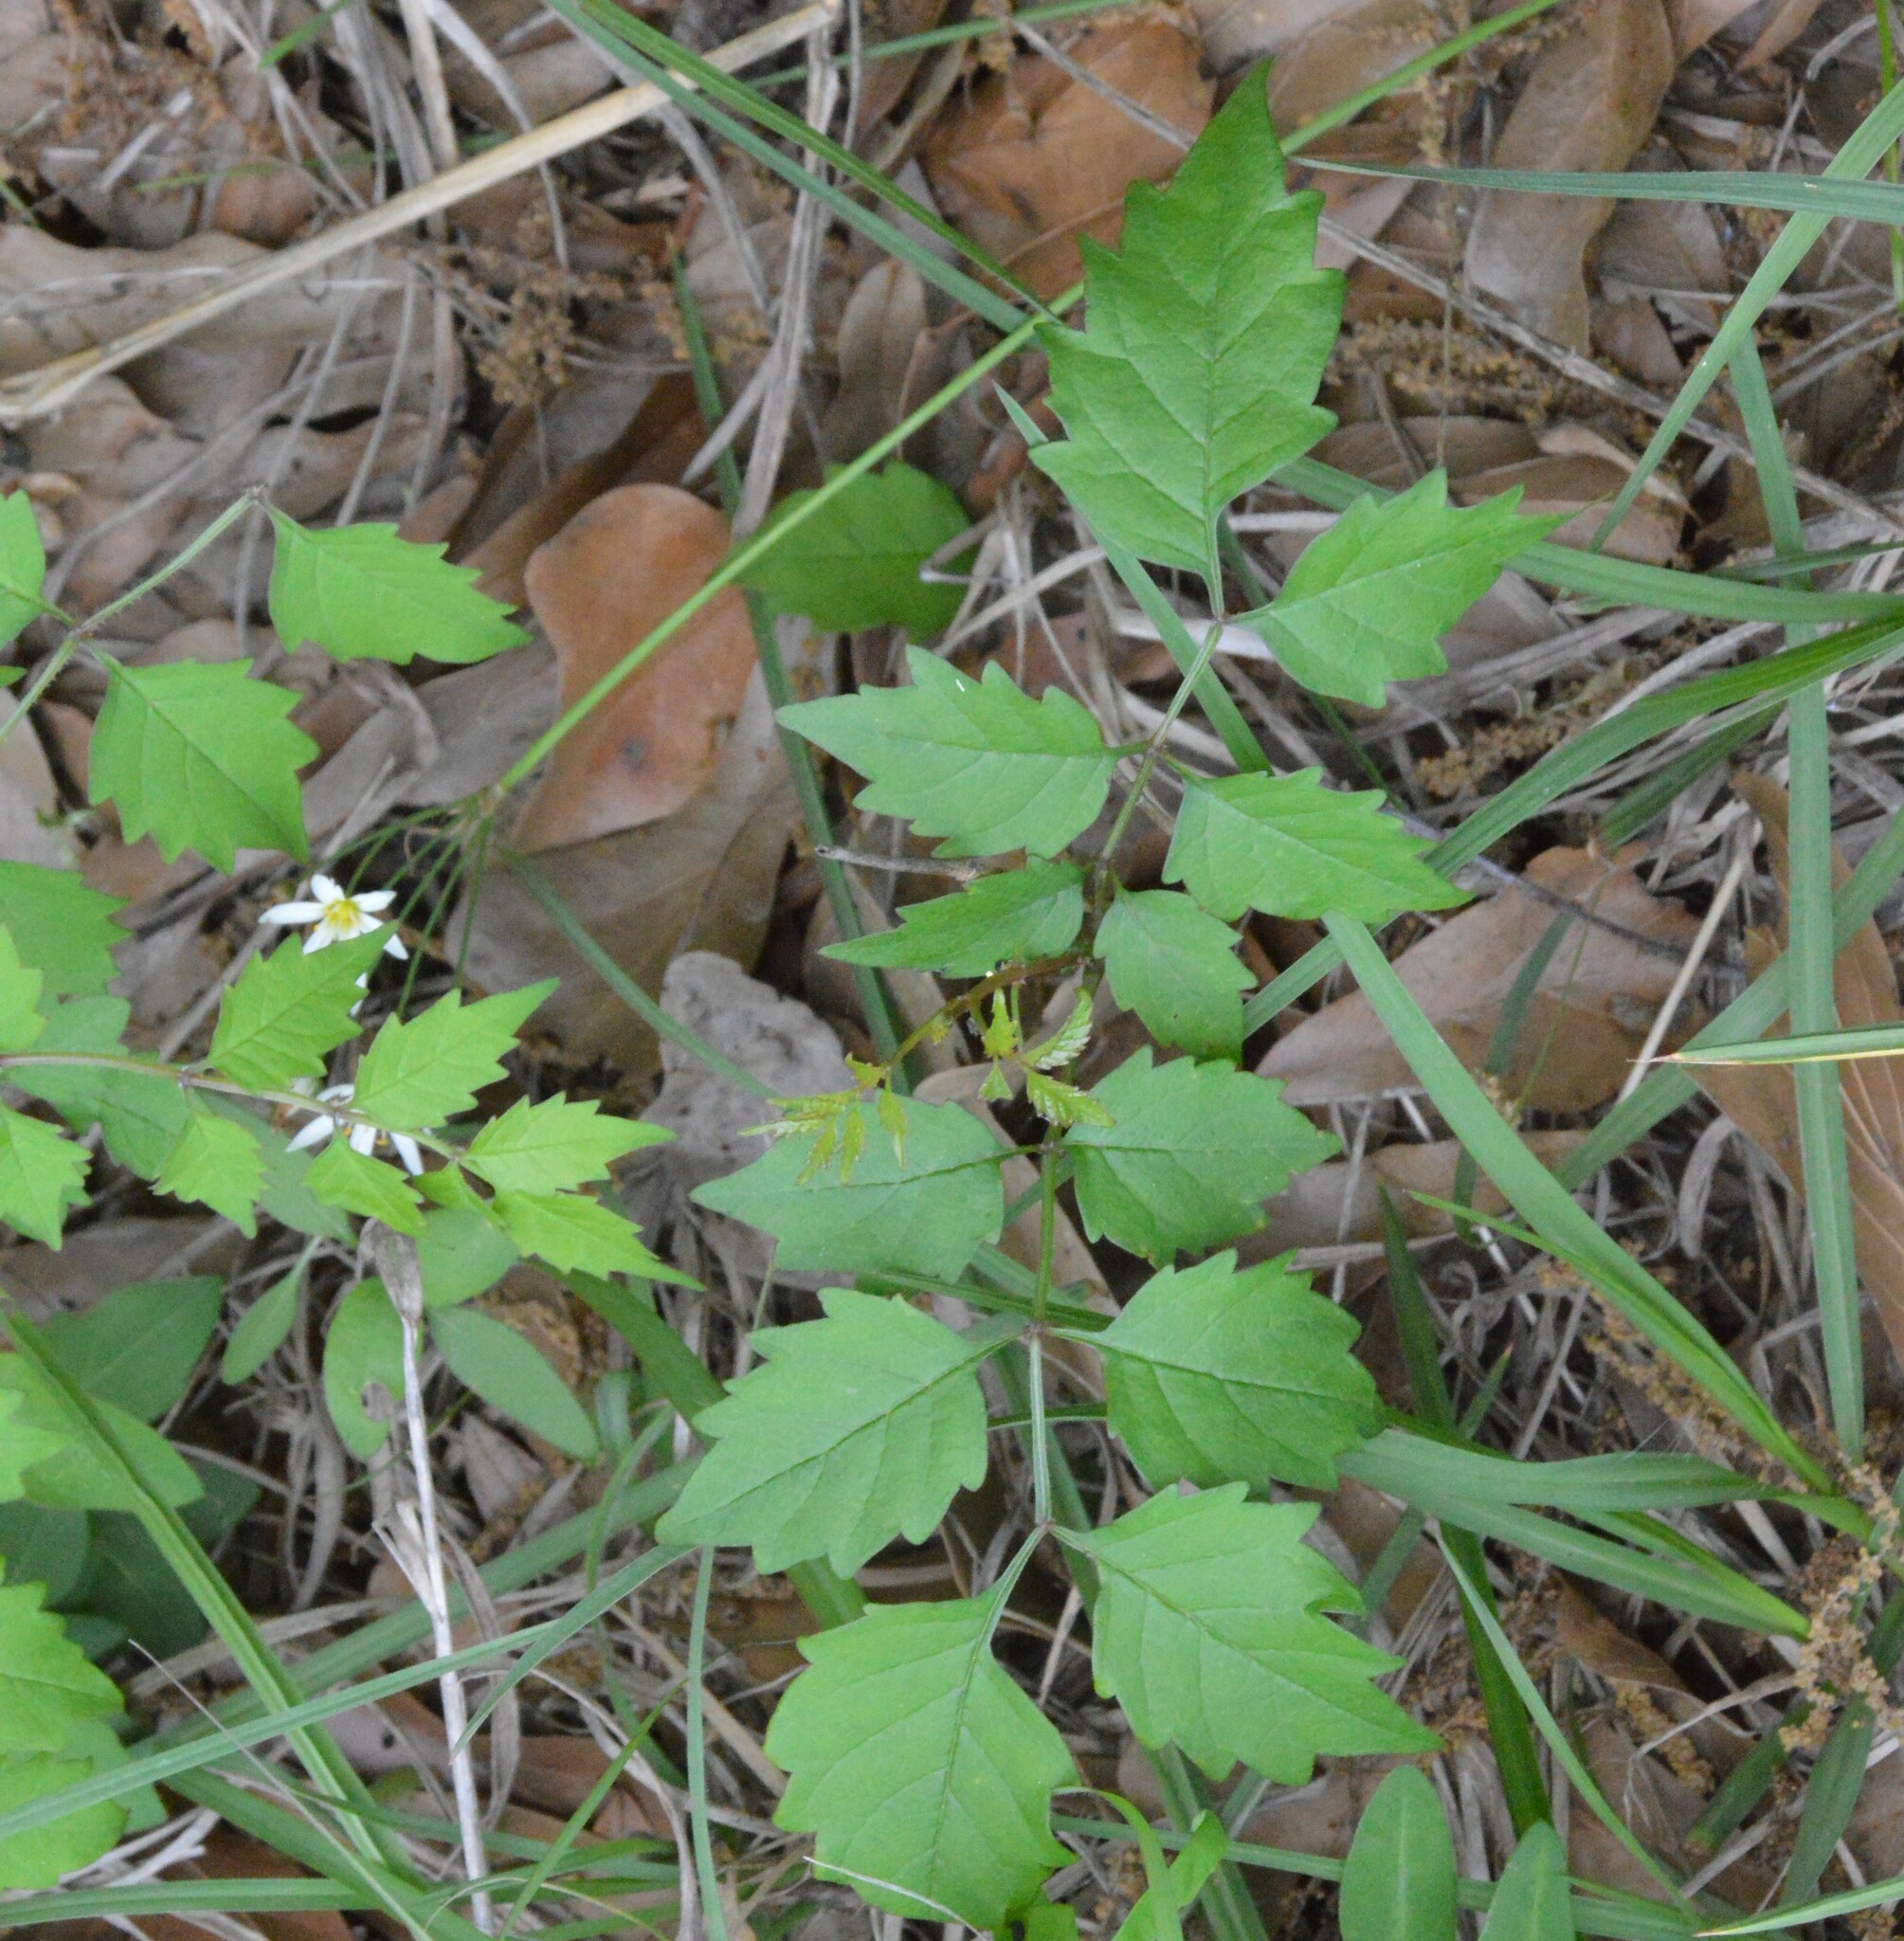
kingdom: Plantae
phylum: Tracheophyta
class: Magnoliopsida
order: Lamiales
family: Bignoniaceae
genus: Campsis
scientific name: Campsis radicans
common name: Trumpet-creeper
